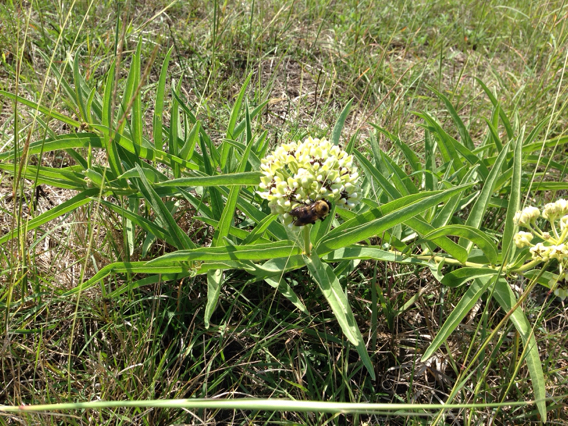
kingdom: Plantae
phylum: Tracheophyta
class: Magnoliopsida
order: Gentianales
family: Apocynaceae
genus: Asclepias
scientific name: Asclepias asperula
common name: Antelope horns
